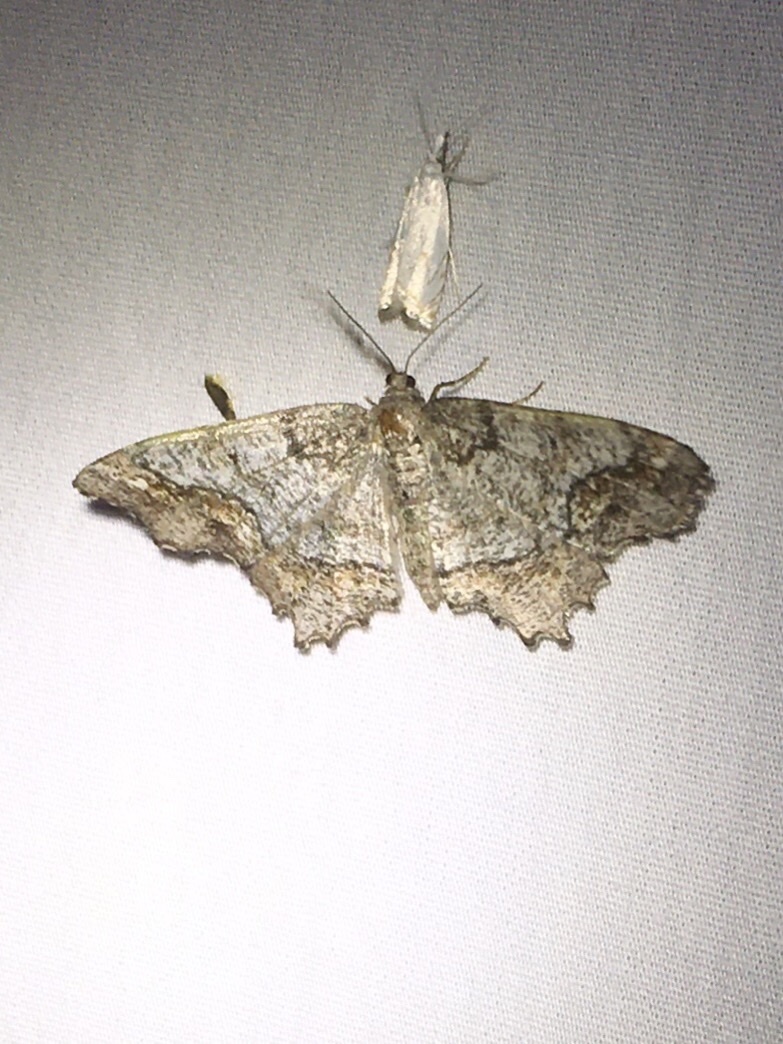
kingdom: Animalia
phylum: Arthropoda
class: Insecta
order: Lepidoptera
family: Geometridae
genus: Hypagyrtis
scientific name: Hypagyrtis unipunctata
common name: One-spotted variant
